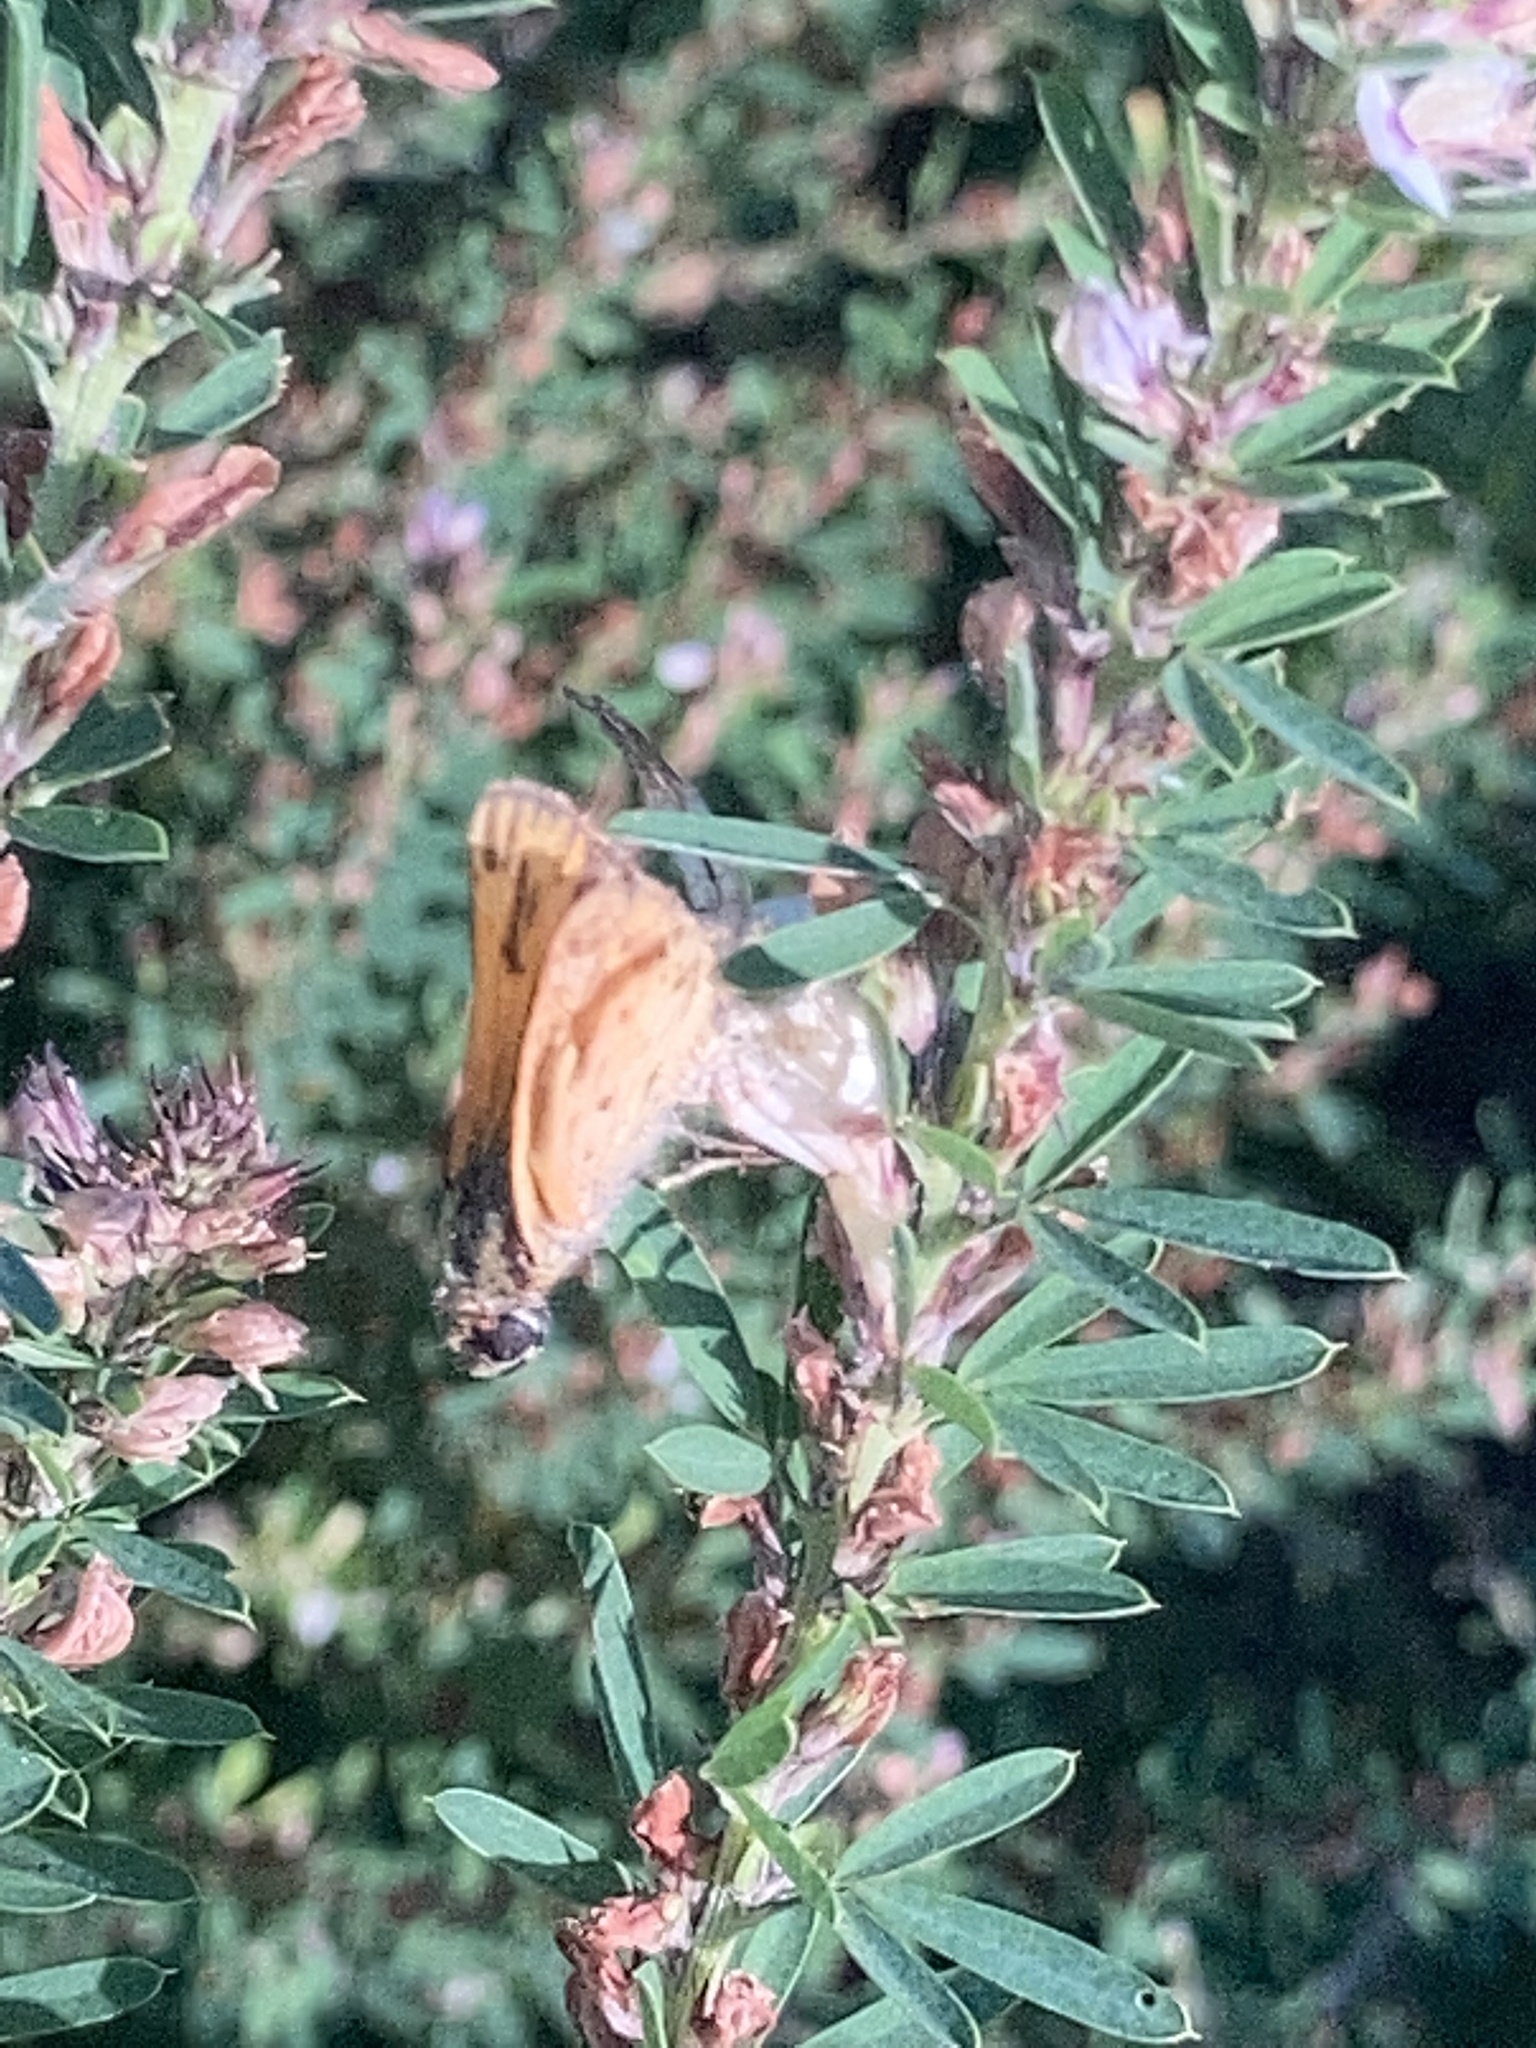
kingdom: Animalia
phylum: Arthropoda
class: Insecta
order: Lepidoptera
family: Hesperiidae
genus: Hylephila
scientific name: Hylephila phyleus
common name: Fiery skipper
